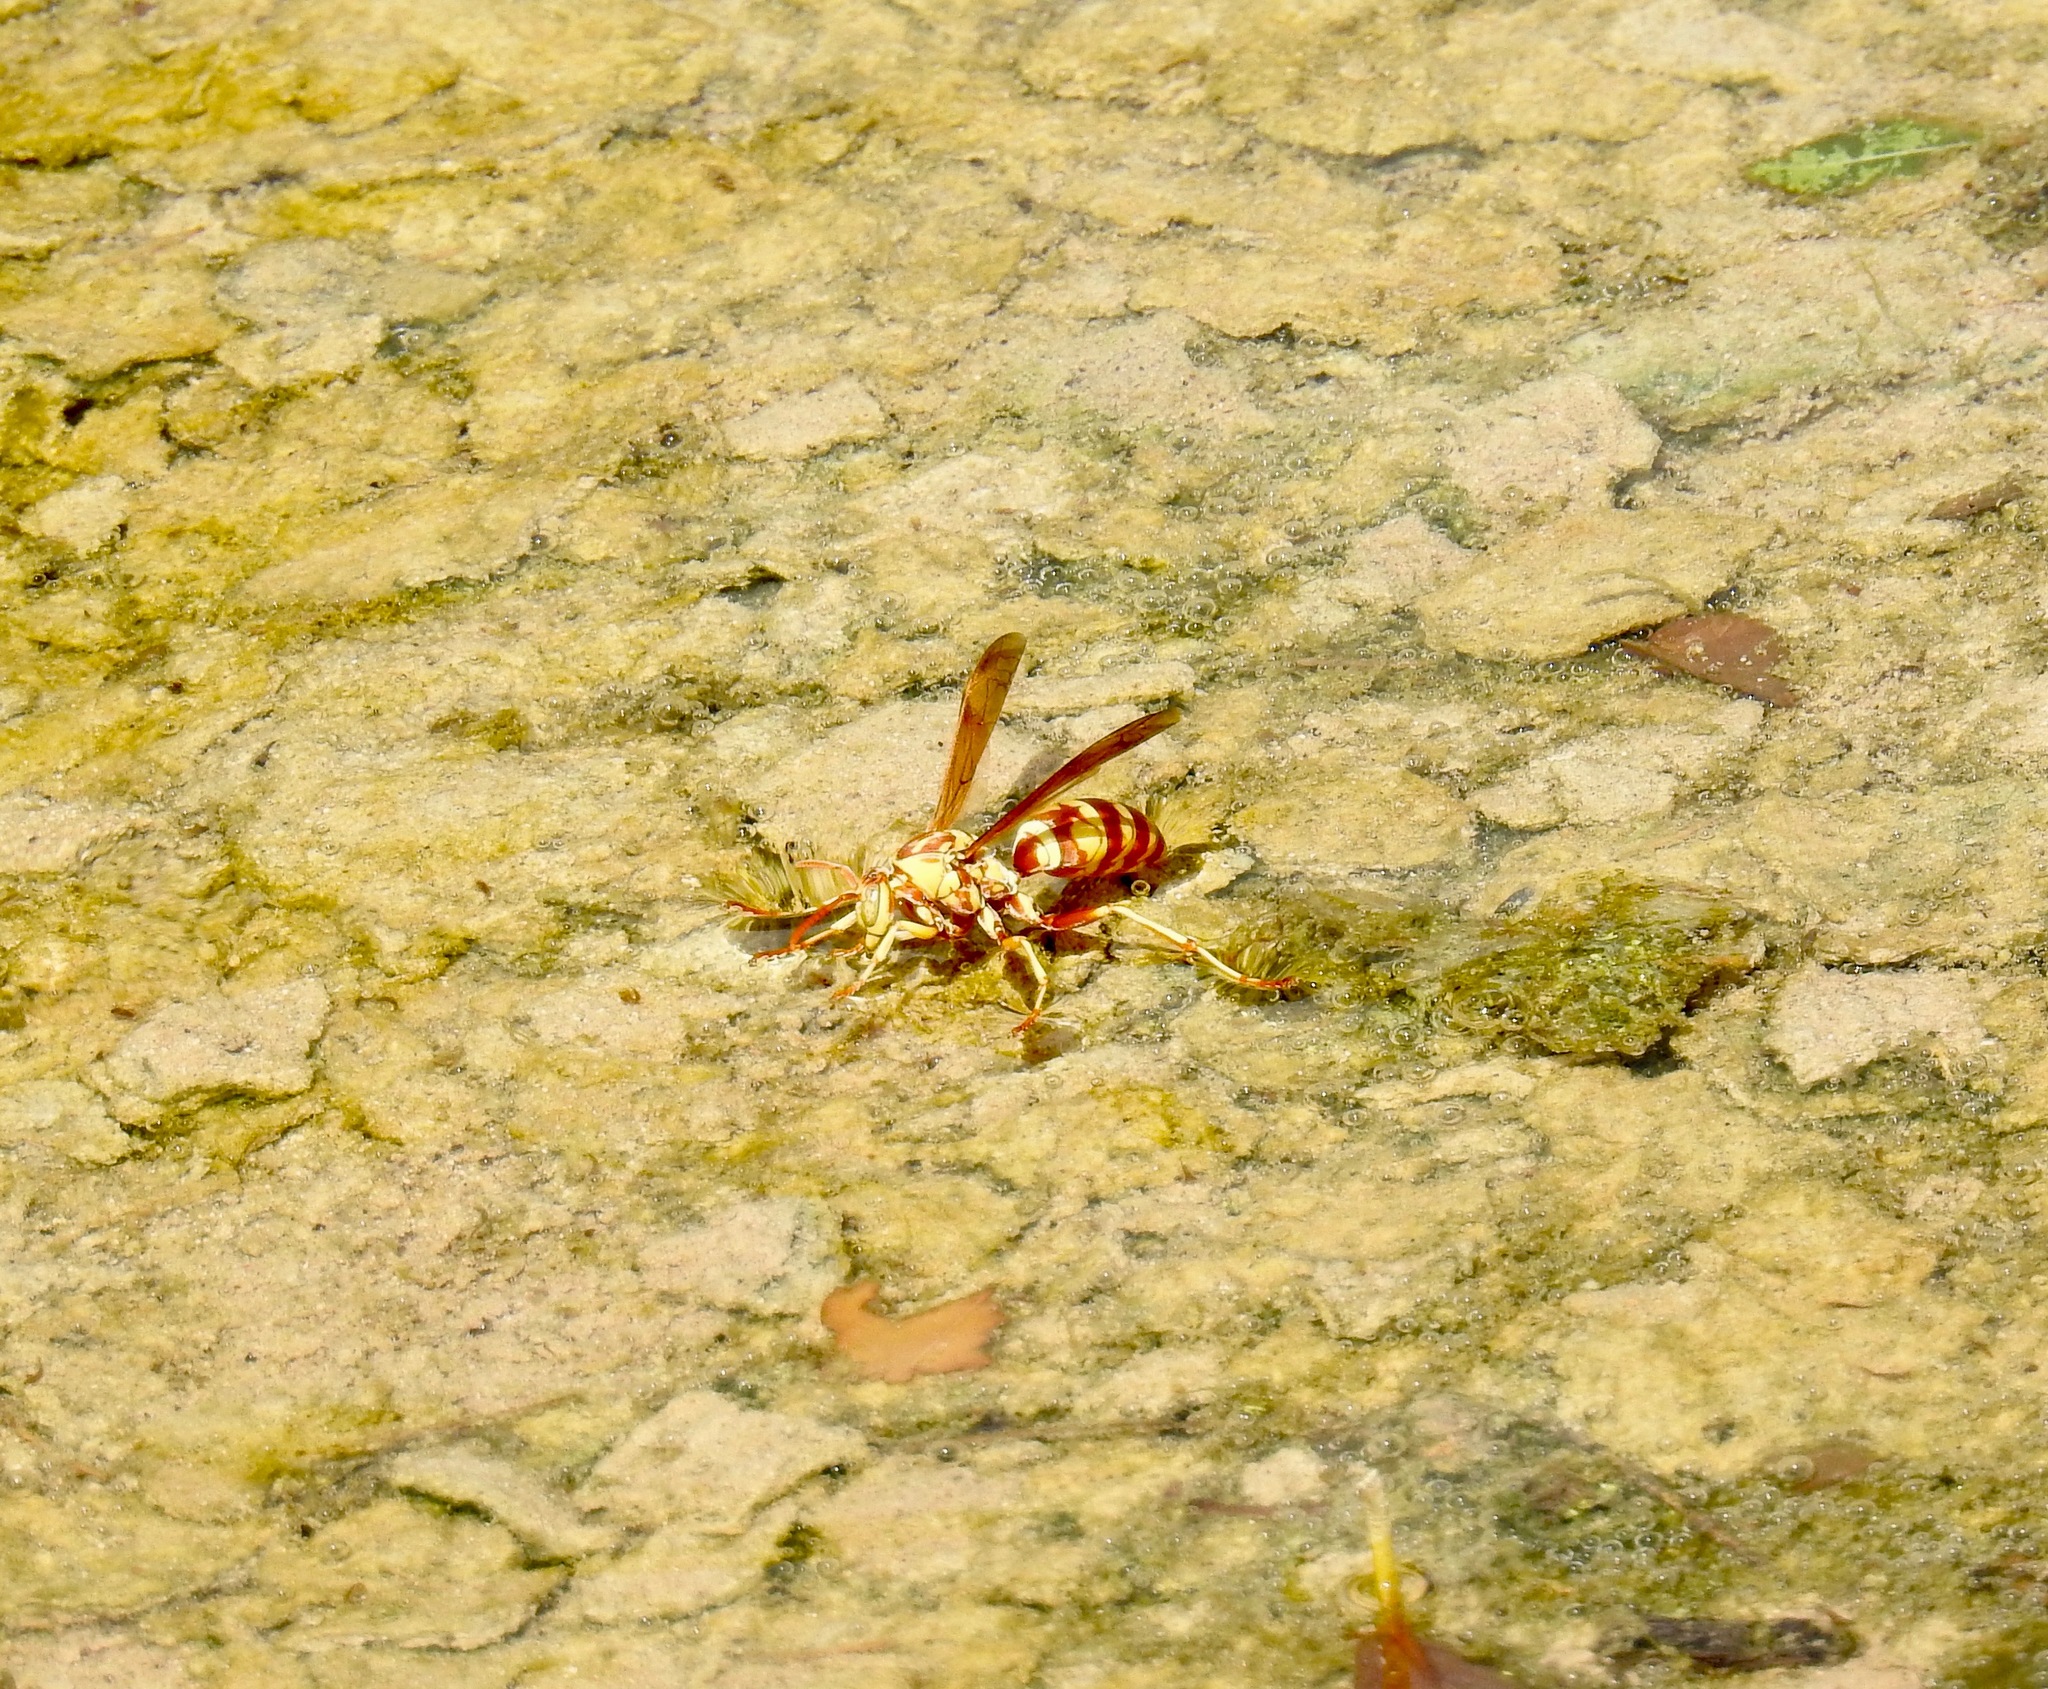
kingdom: Animalia
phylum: Arthropoda
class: Insecta
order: Hymenoptera
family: Eumenidae
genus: Polistes
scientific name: Polistes apachus
